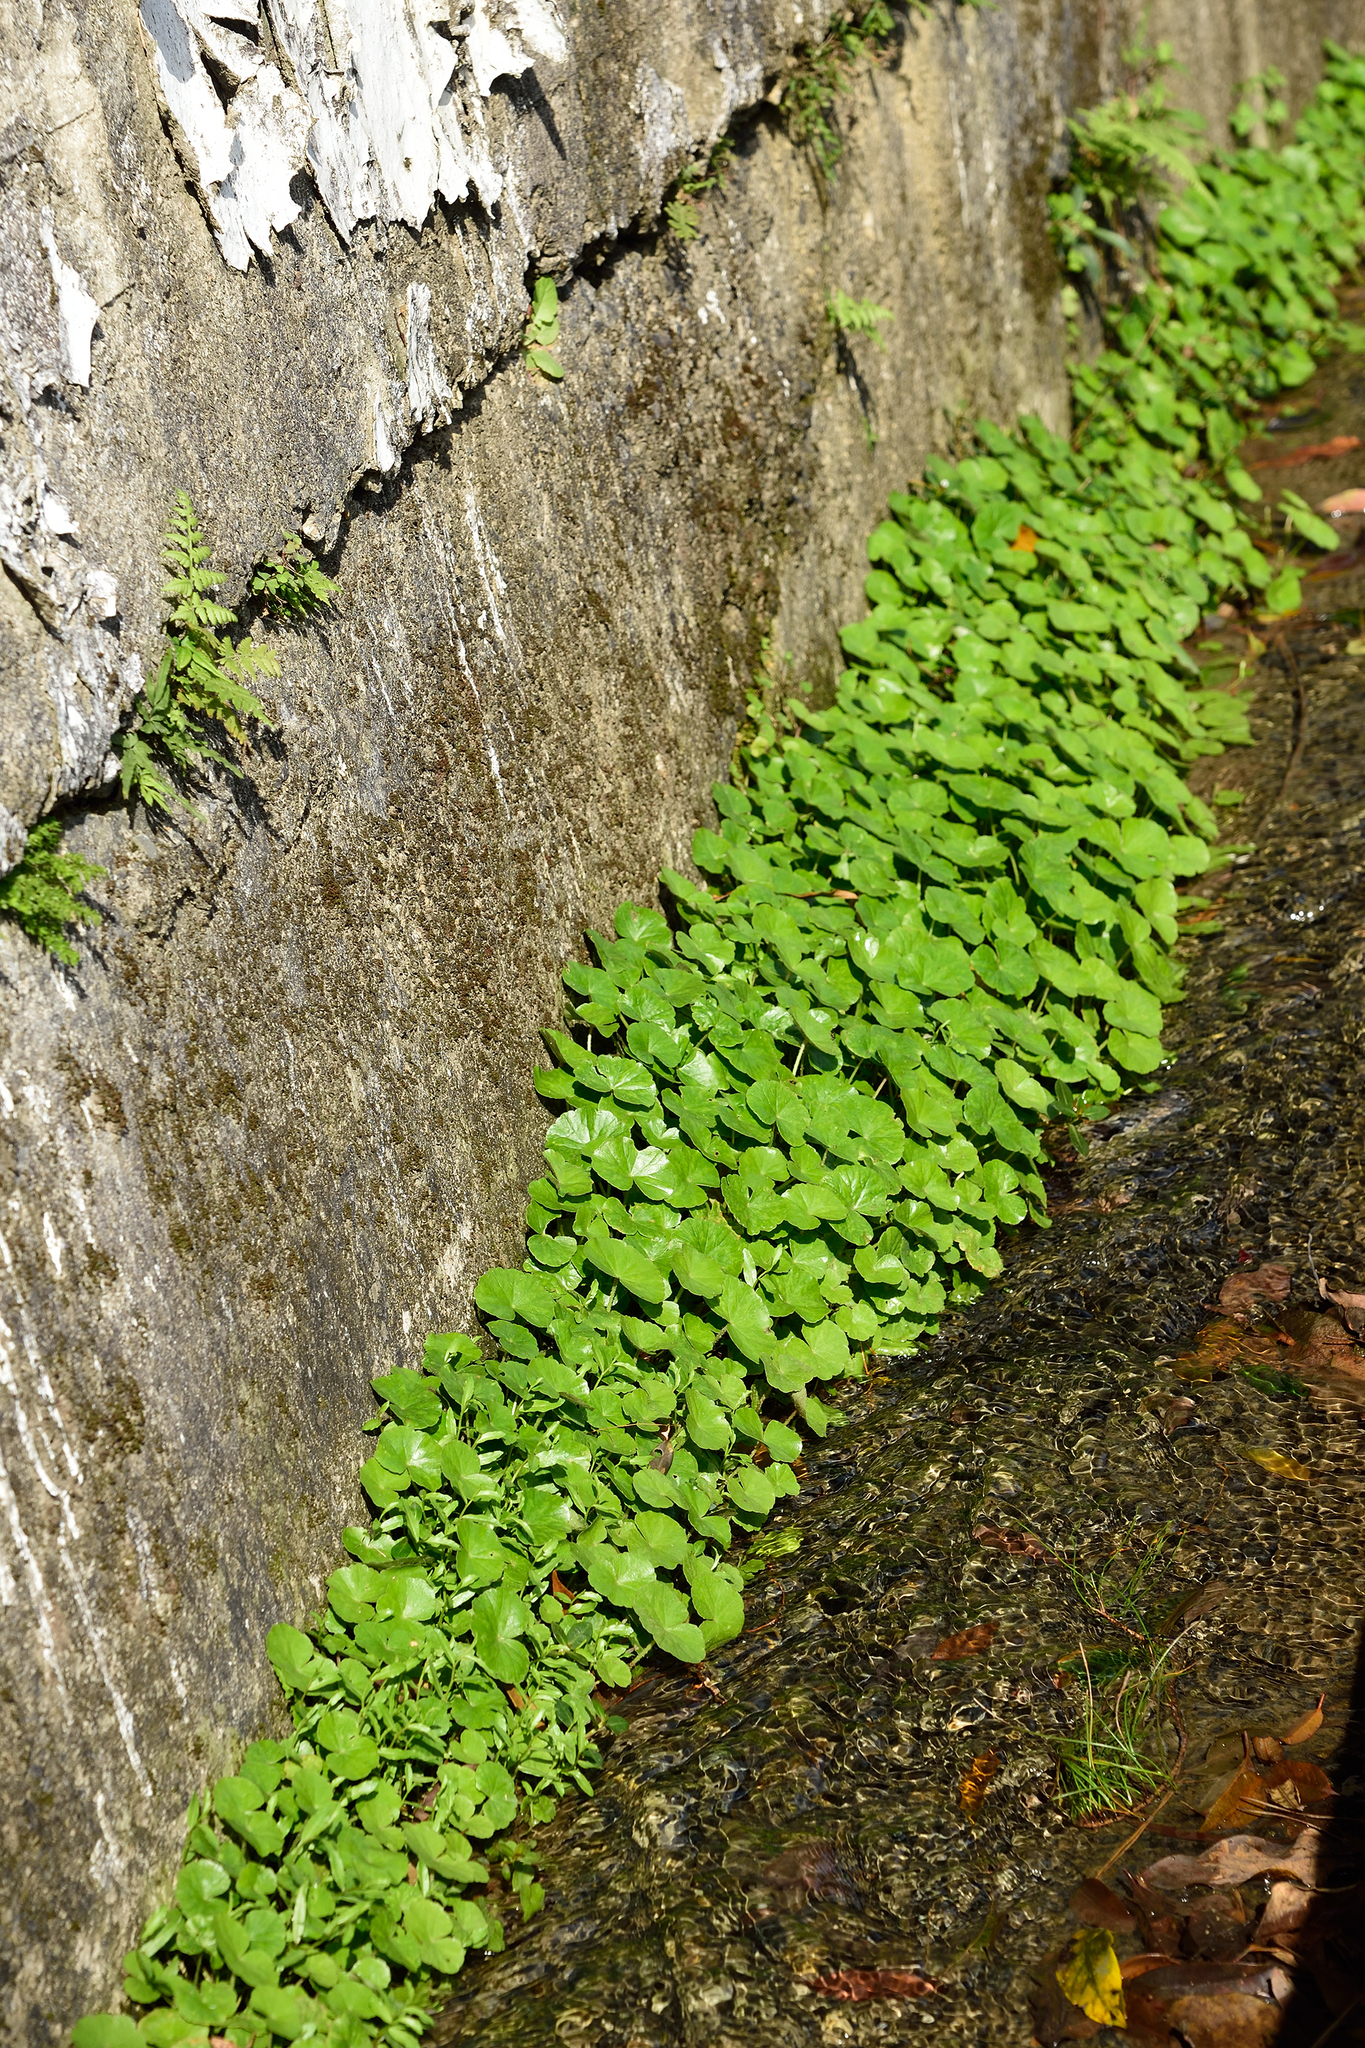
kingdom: Plantae
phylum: Tracheophyta
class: Magnoliopsida
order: Apiales
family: Araliaceae
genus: Hydrocotyle
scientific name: Hydrocotyle leucocephala
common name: Brazilian pennywort
